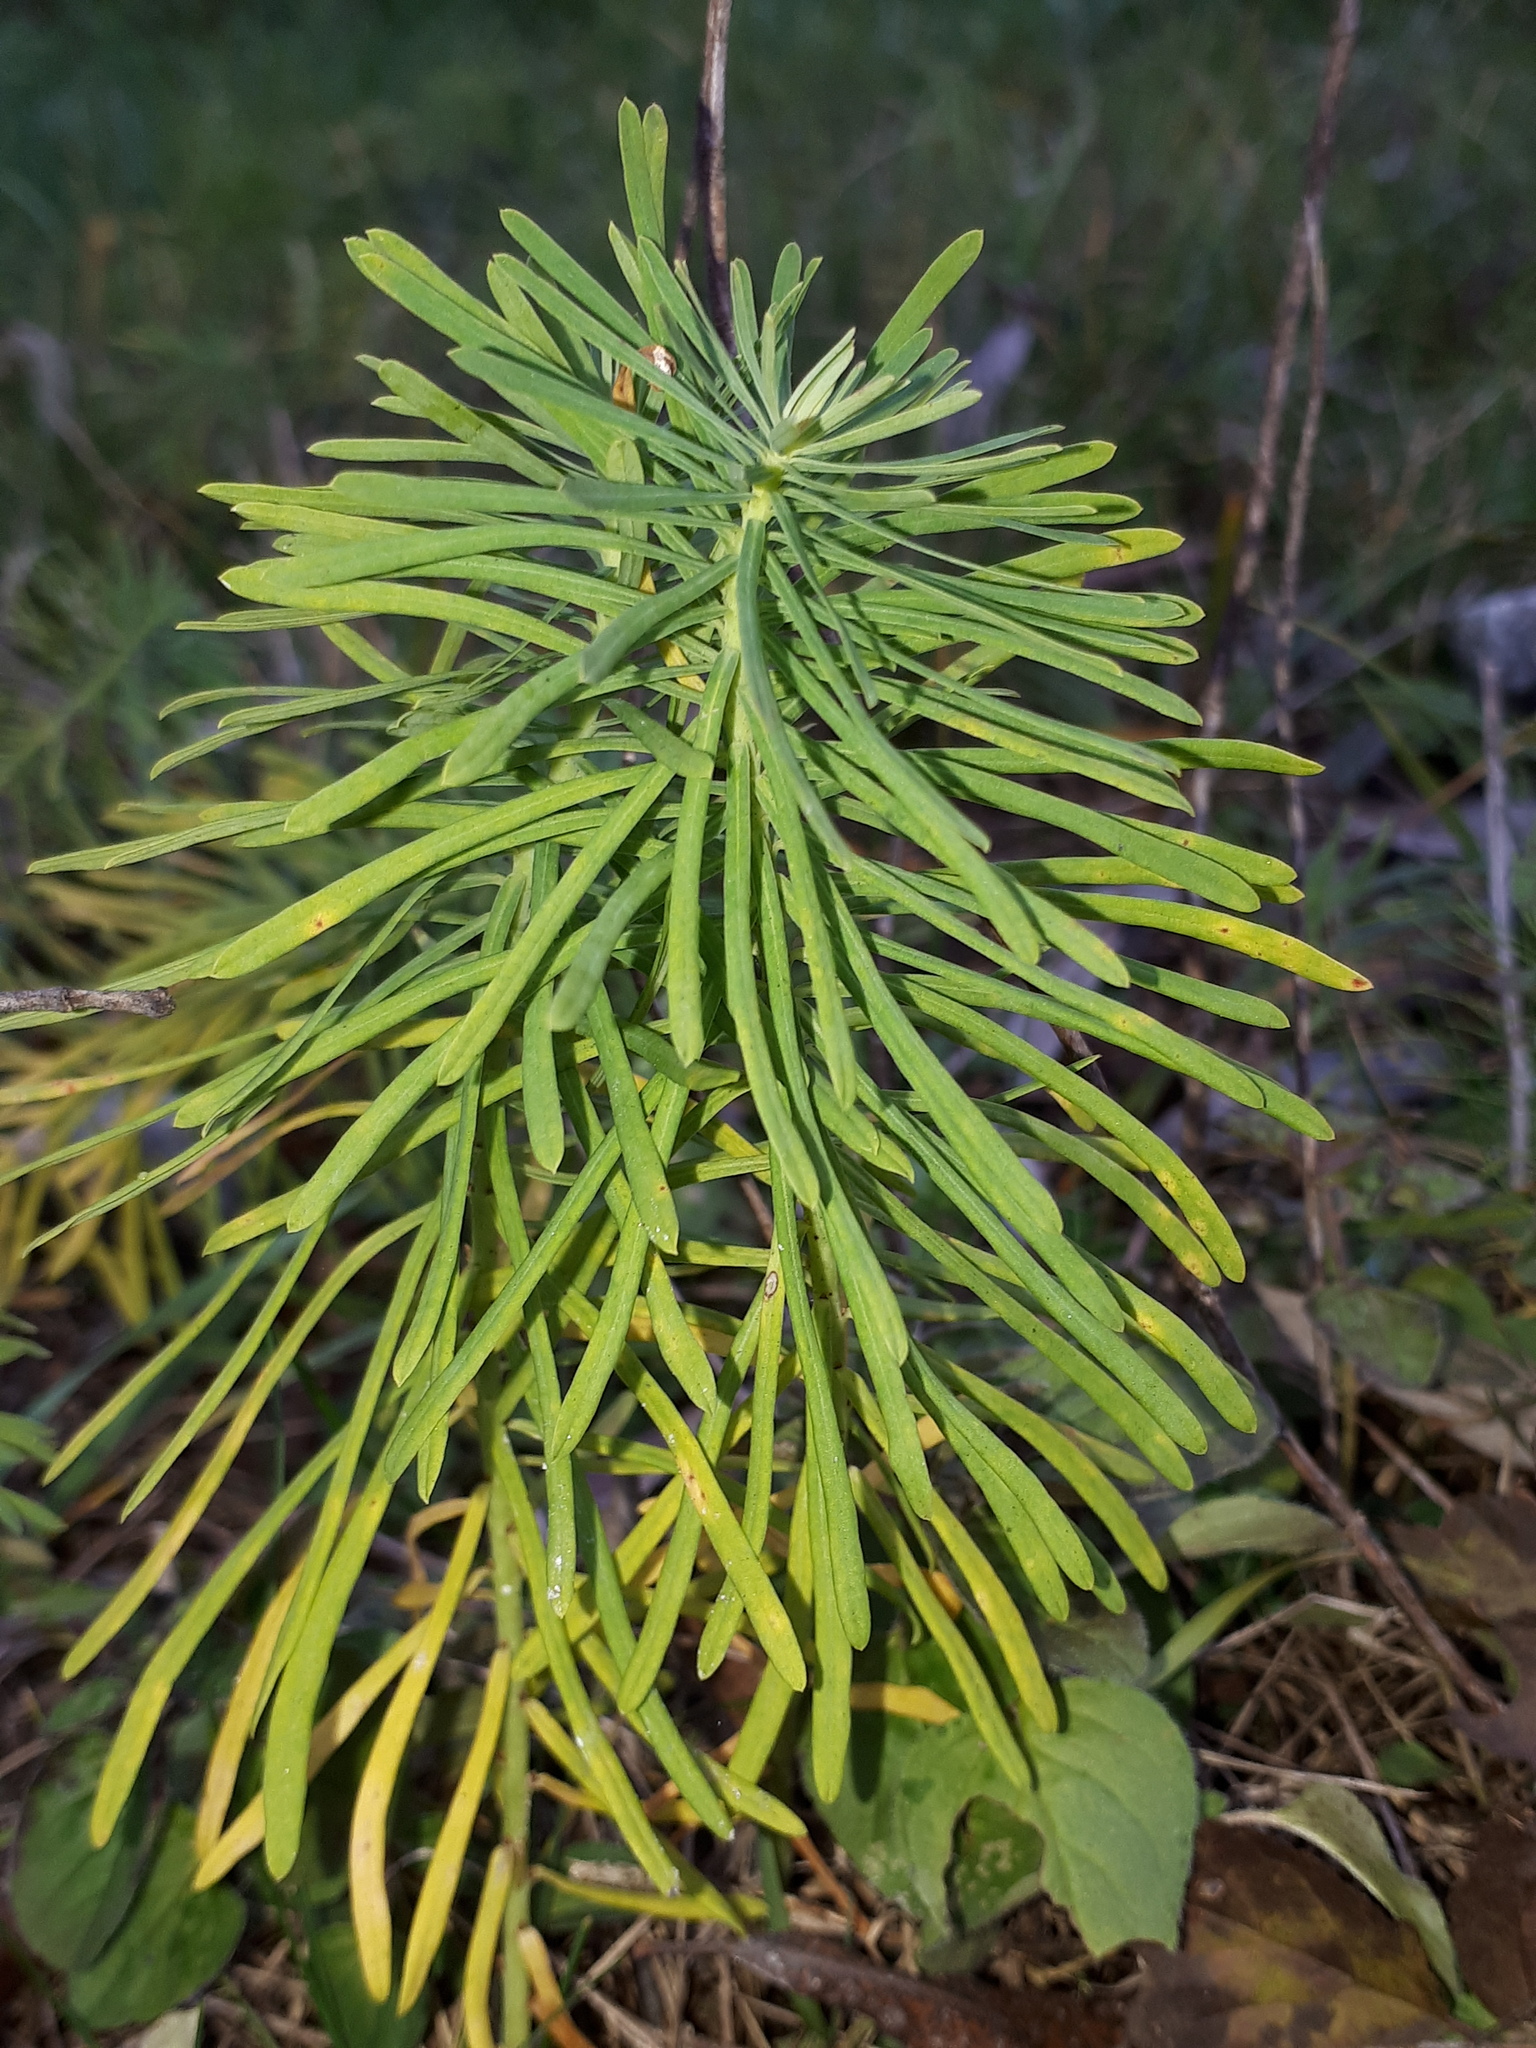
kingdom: Plantae
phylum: Tracheophyta
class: Magnoliopsida
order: Malpighiales
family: Euphorbiaceae
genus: Euphorbia
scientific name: Euphorbia cyparissias
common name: Cypress spurge
